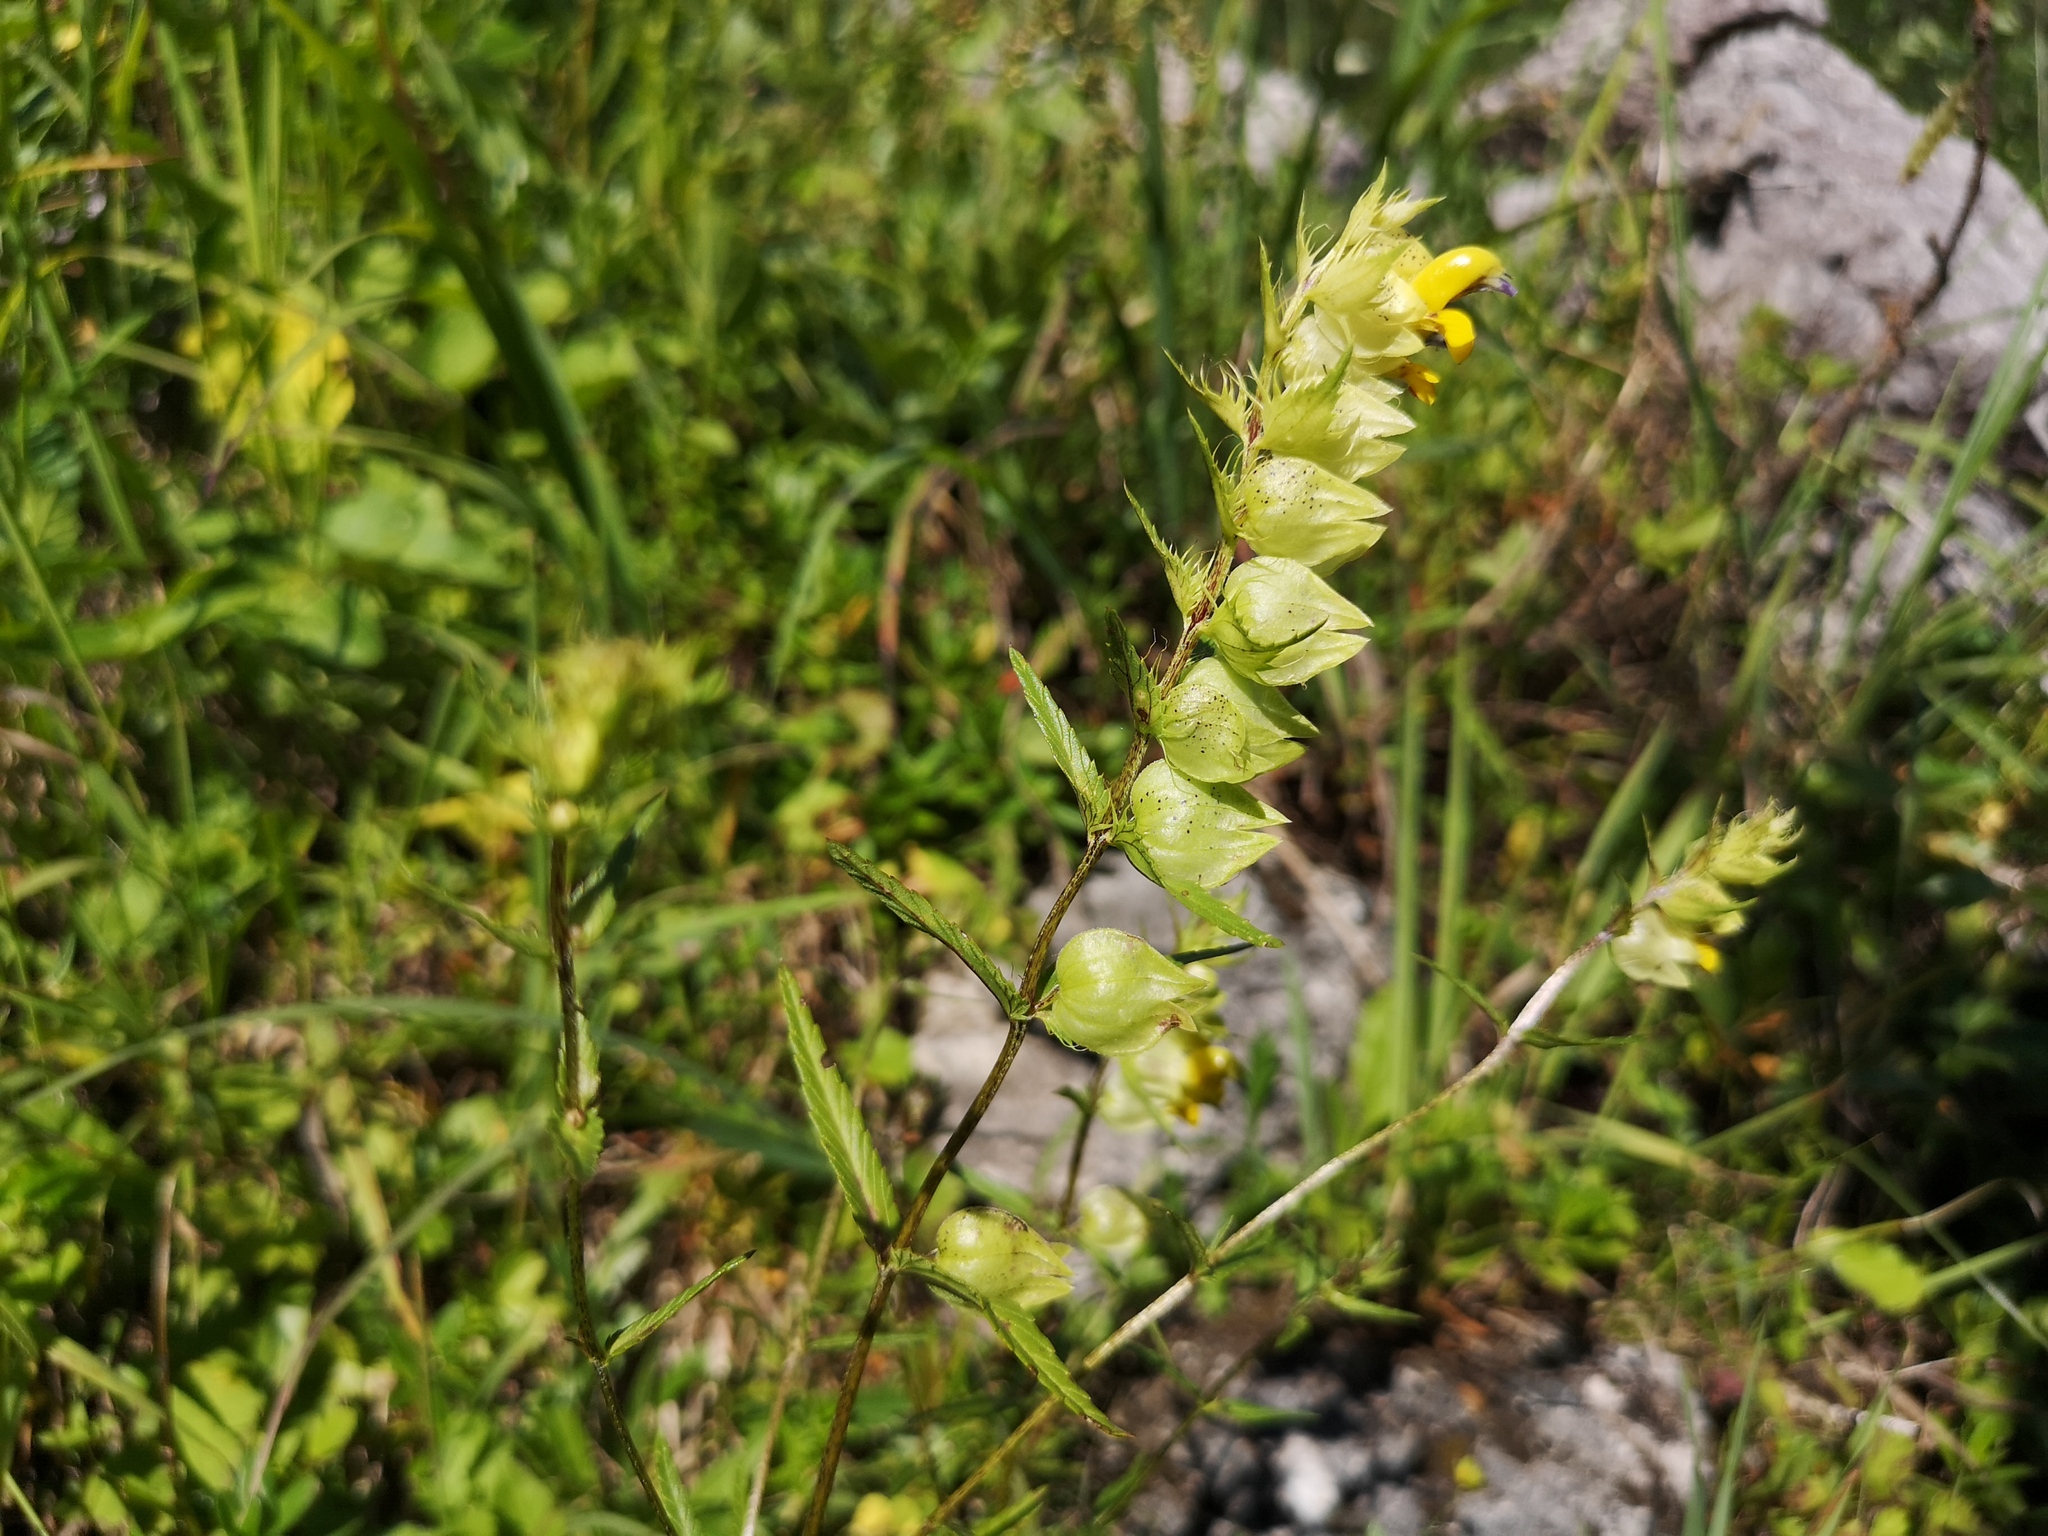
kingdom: Plantae
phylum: Tracheophyta
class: Magnoliopsida
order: Lamiales
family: Orobanchaceae
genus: Rhinanthus
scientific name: Rhinanthus glacialis
